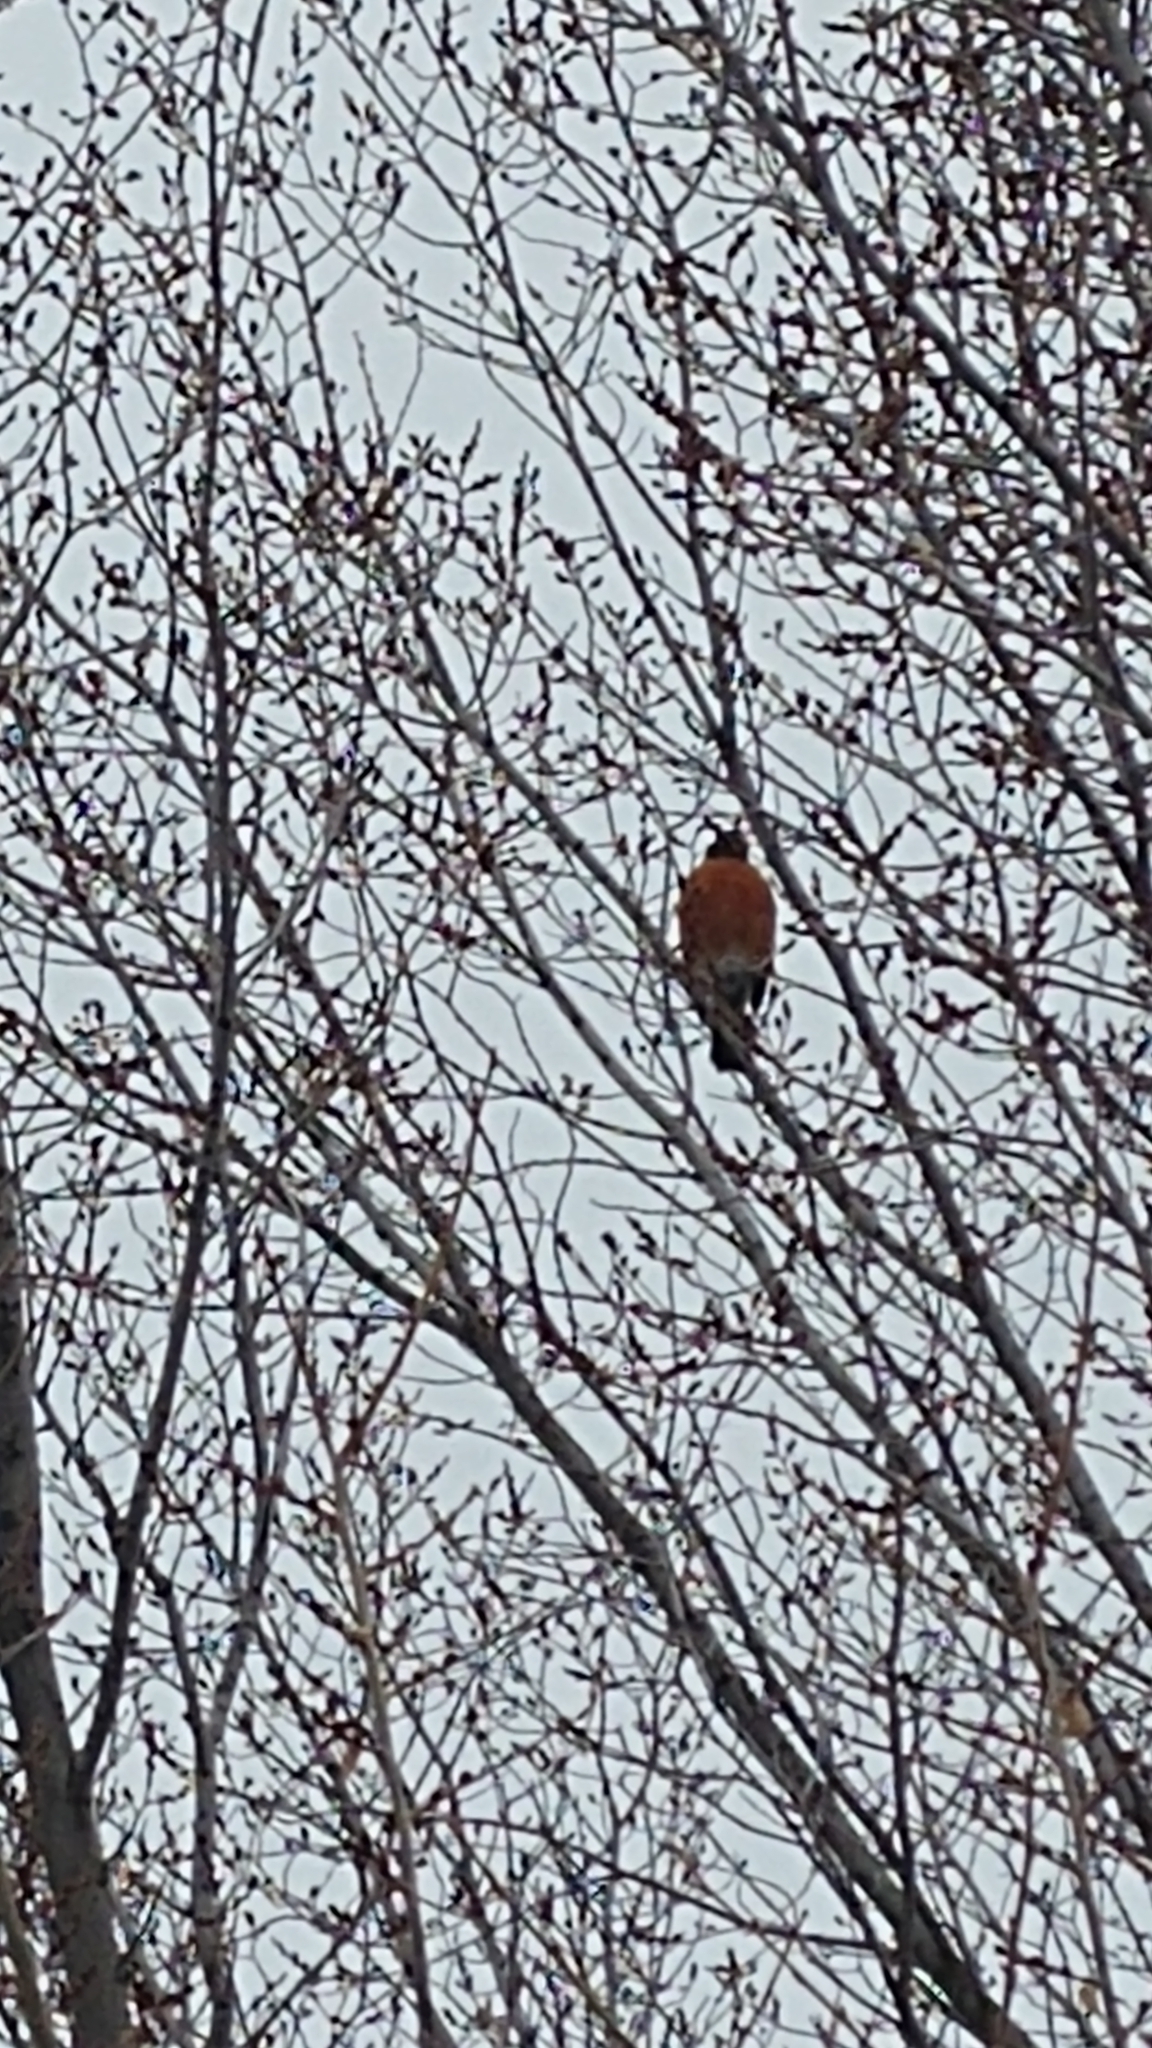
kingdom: Animalia
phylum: Chordata
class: Aves
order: Passeriformes
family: Turdidae
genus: Turdus
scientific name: Turdus migratorius
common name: American robin
